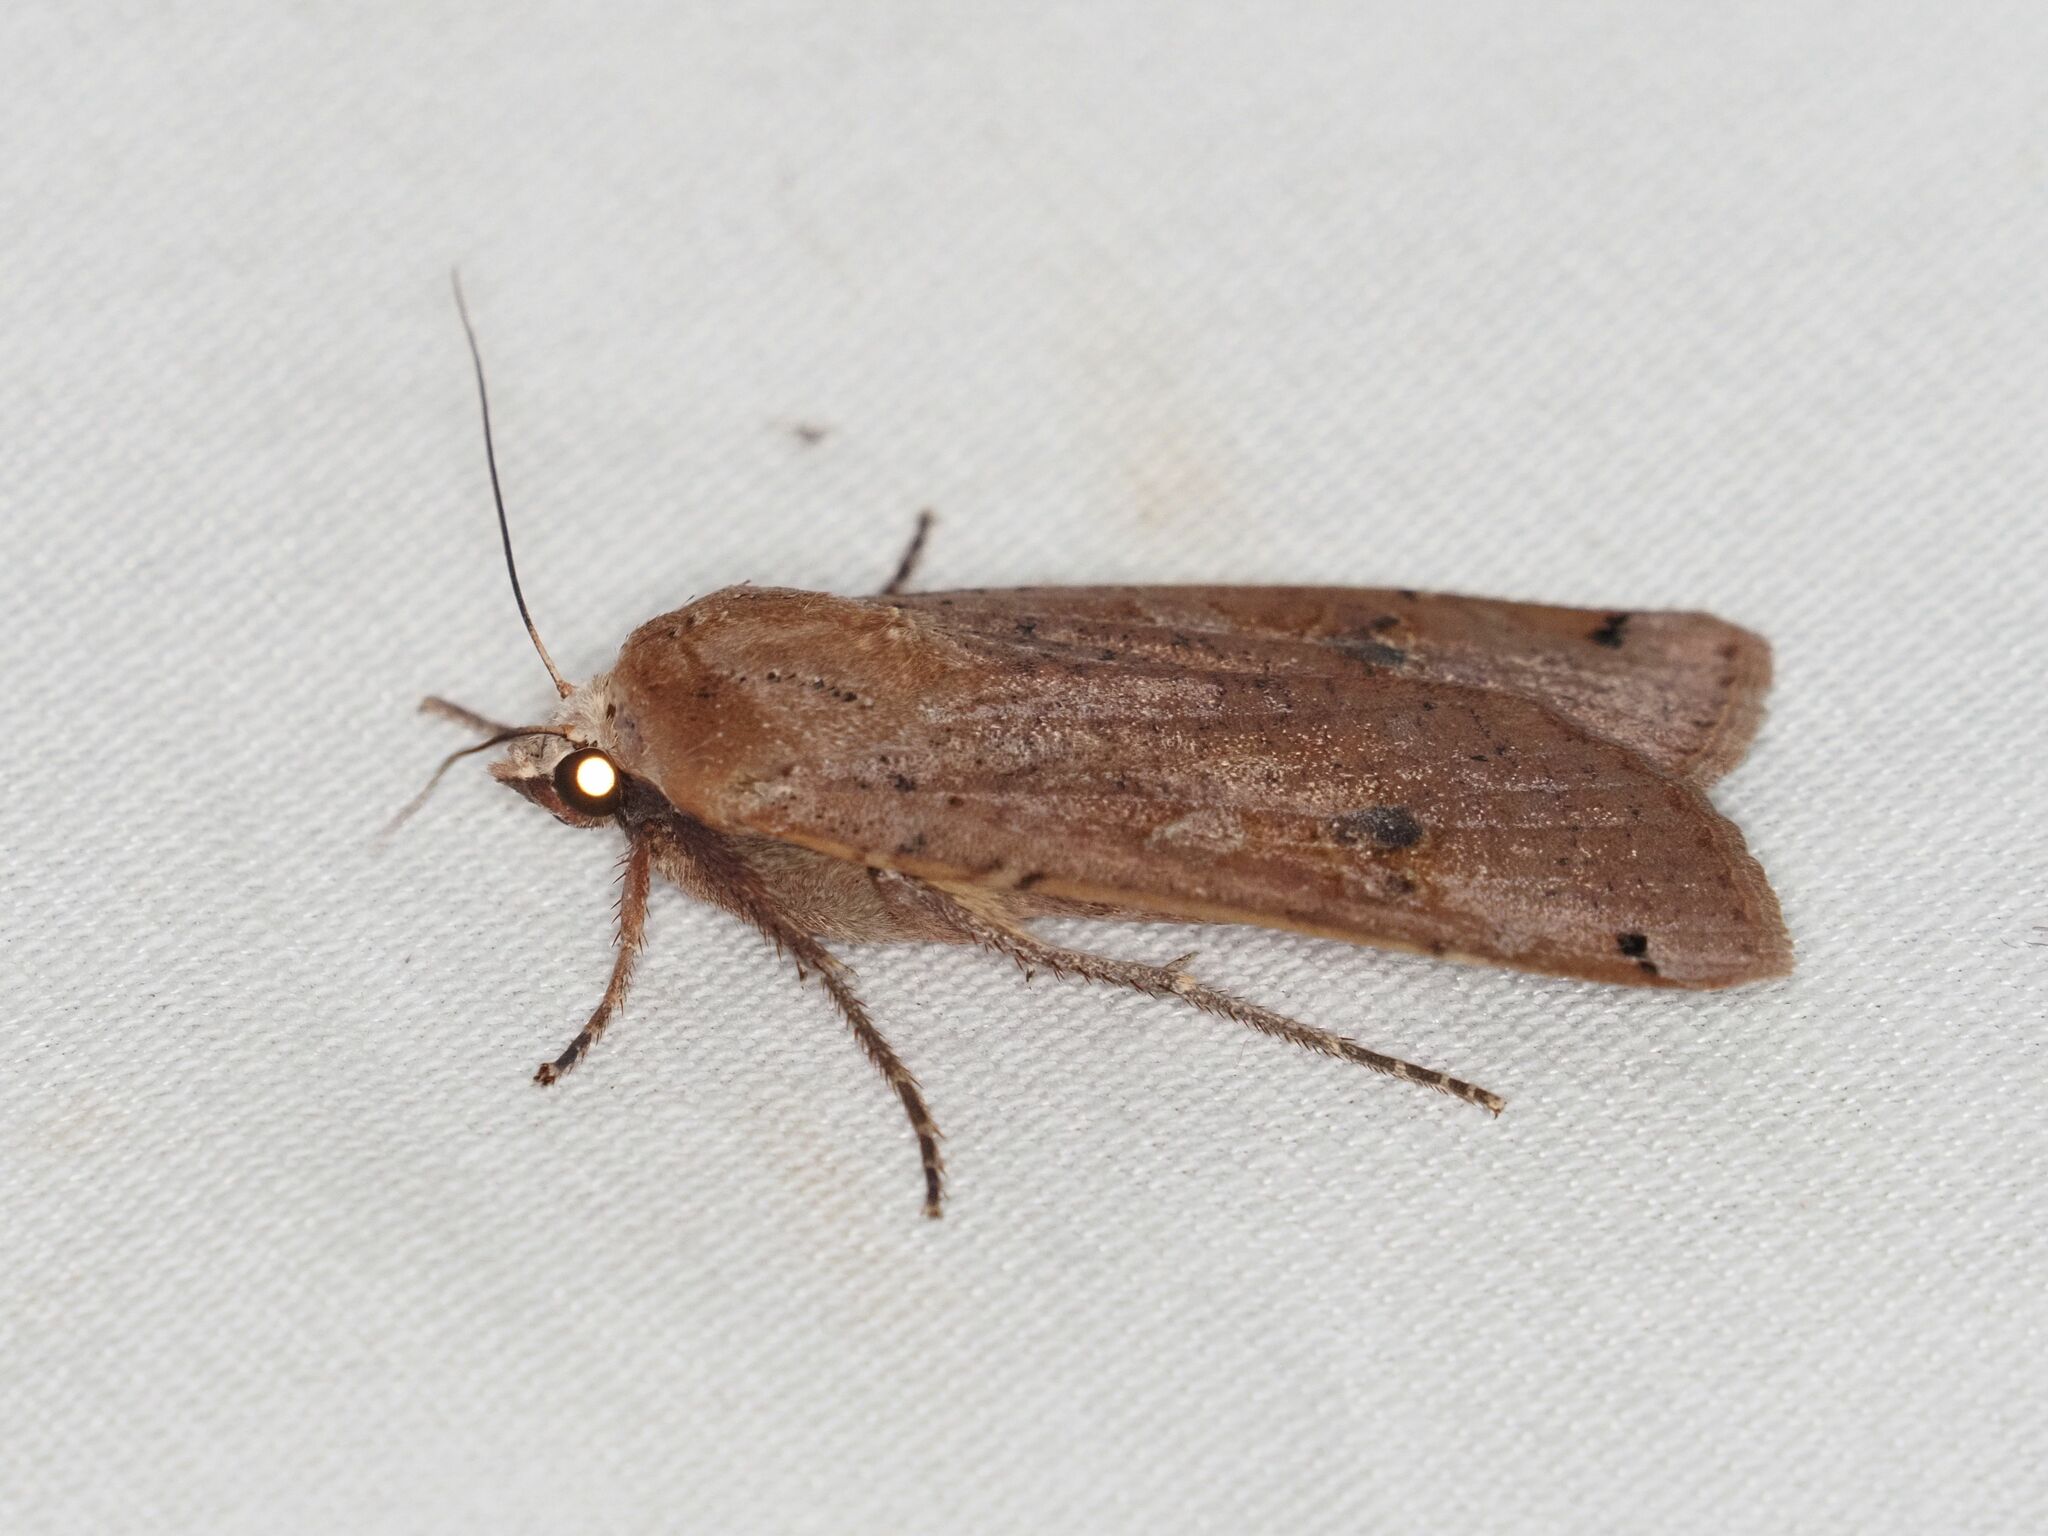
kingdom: Animalia
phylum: Arthropoda
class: Insecta
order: Lepidoptera
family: Noctuidae
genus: Noctua
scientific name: Noctua pronuba
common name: Large yellow underwing
